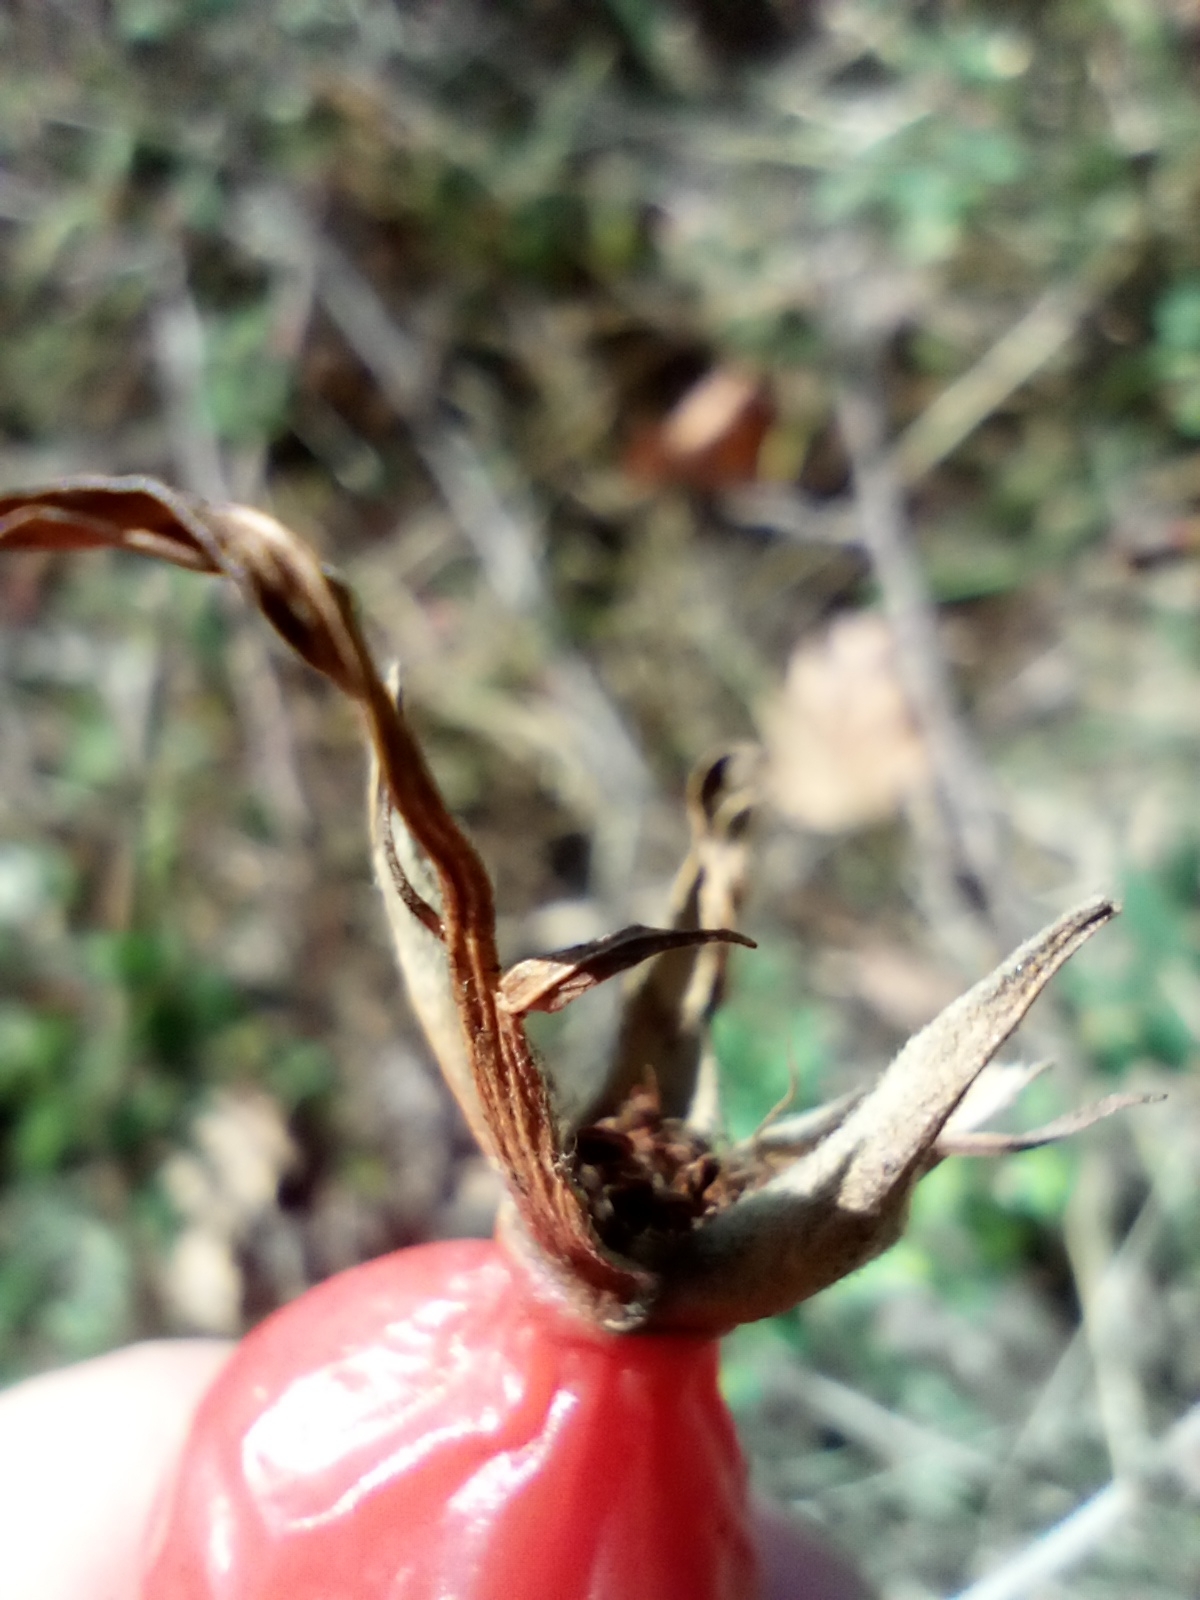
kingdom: Plantae
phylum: Tracheophyta
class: Magnoliopsida
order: Rosales
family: Rosaceae
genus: Rosa
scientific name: Rosa dumalis
